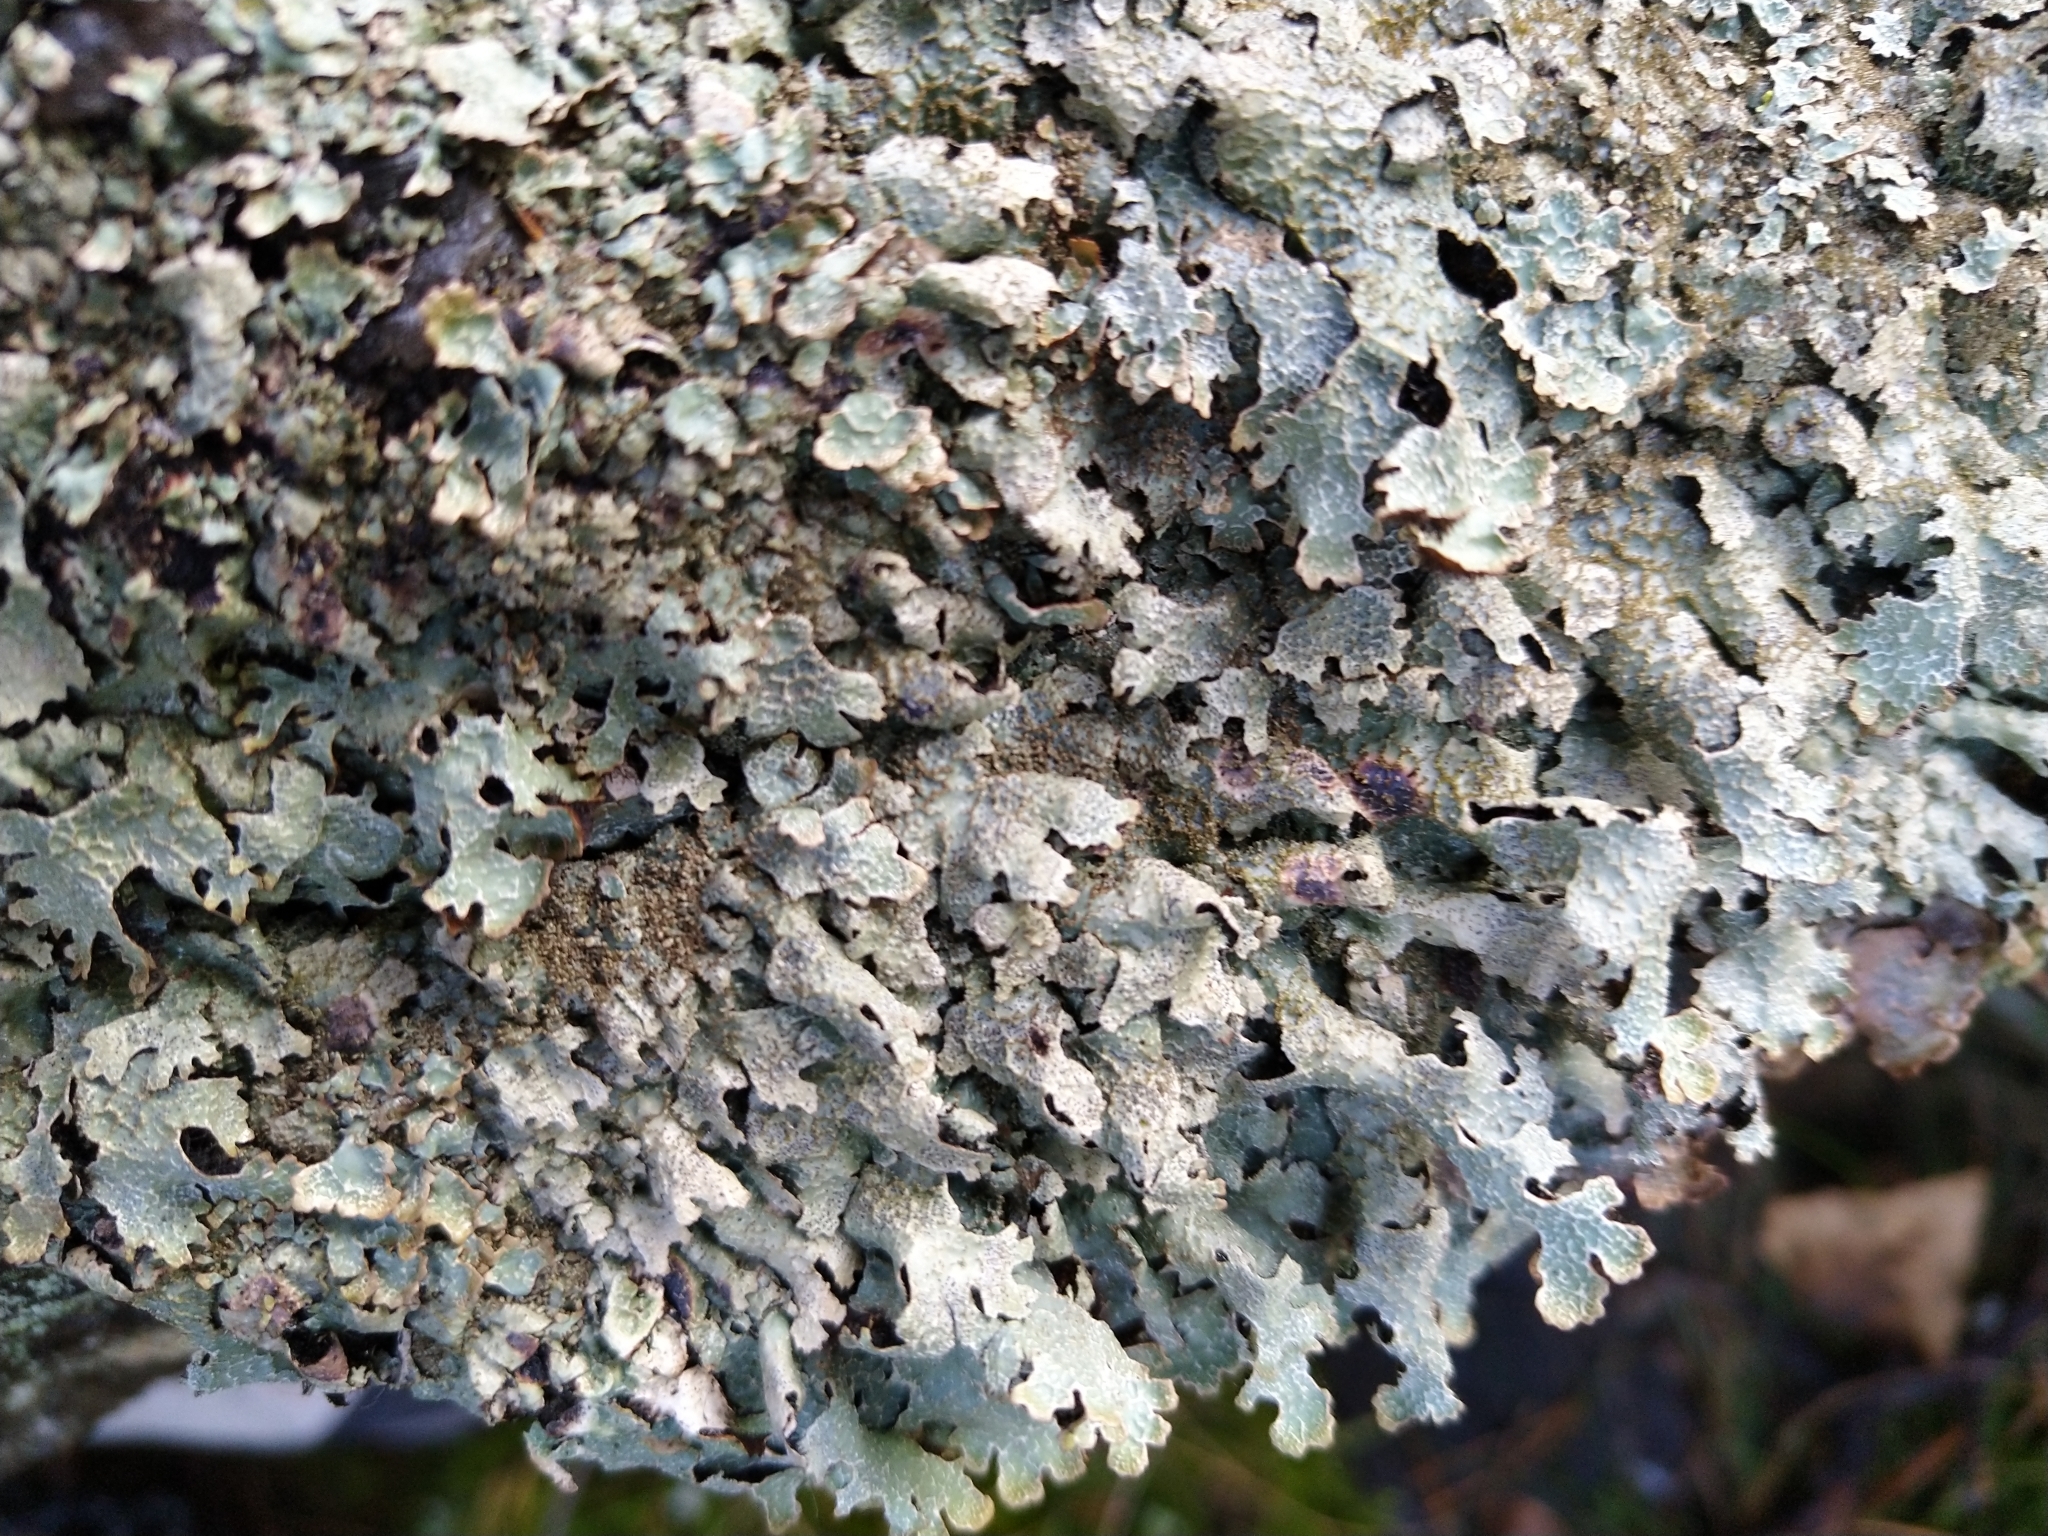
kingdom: Fungi
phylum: Ascomycota
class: Lecanoromycetes
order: Lecanorales
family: Parmeliaceae
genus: Parmelia
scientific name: Parmelia saxatilis
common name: Salted shield lichen
